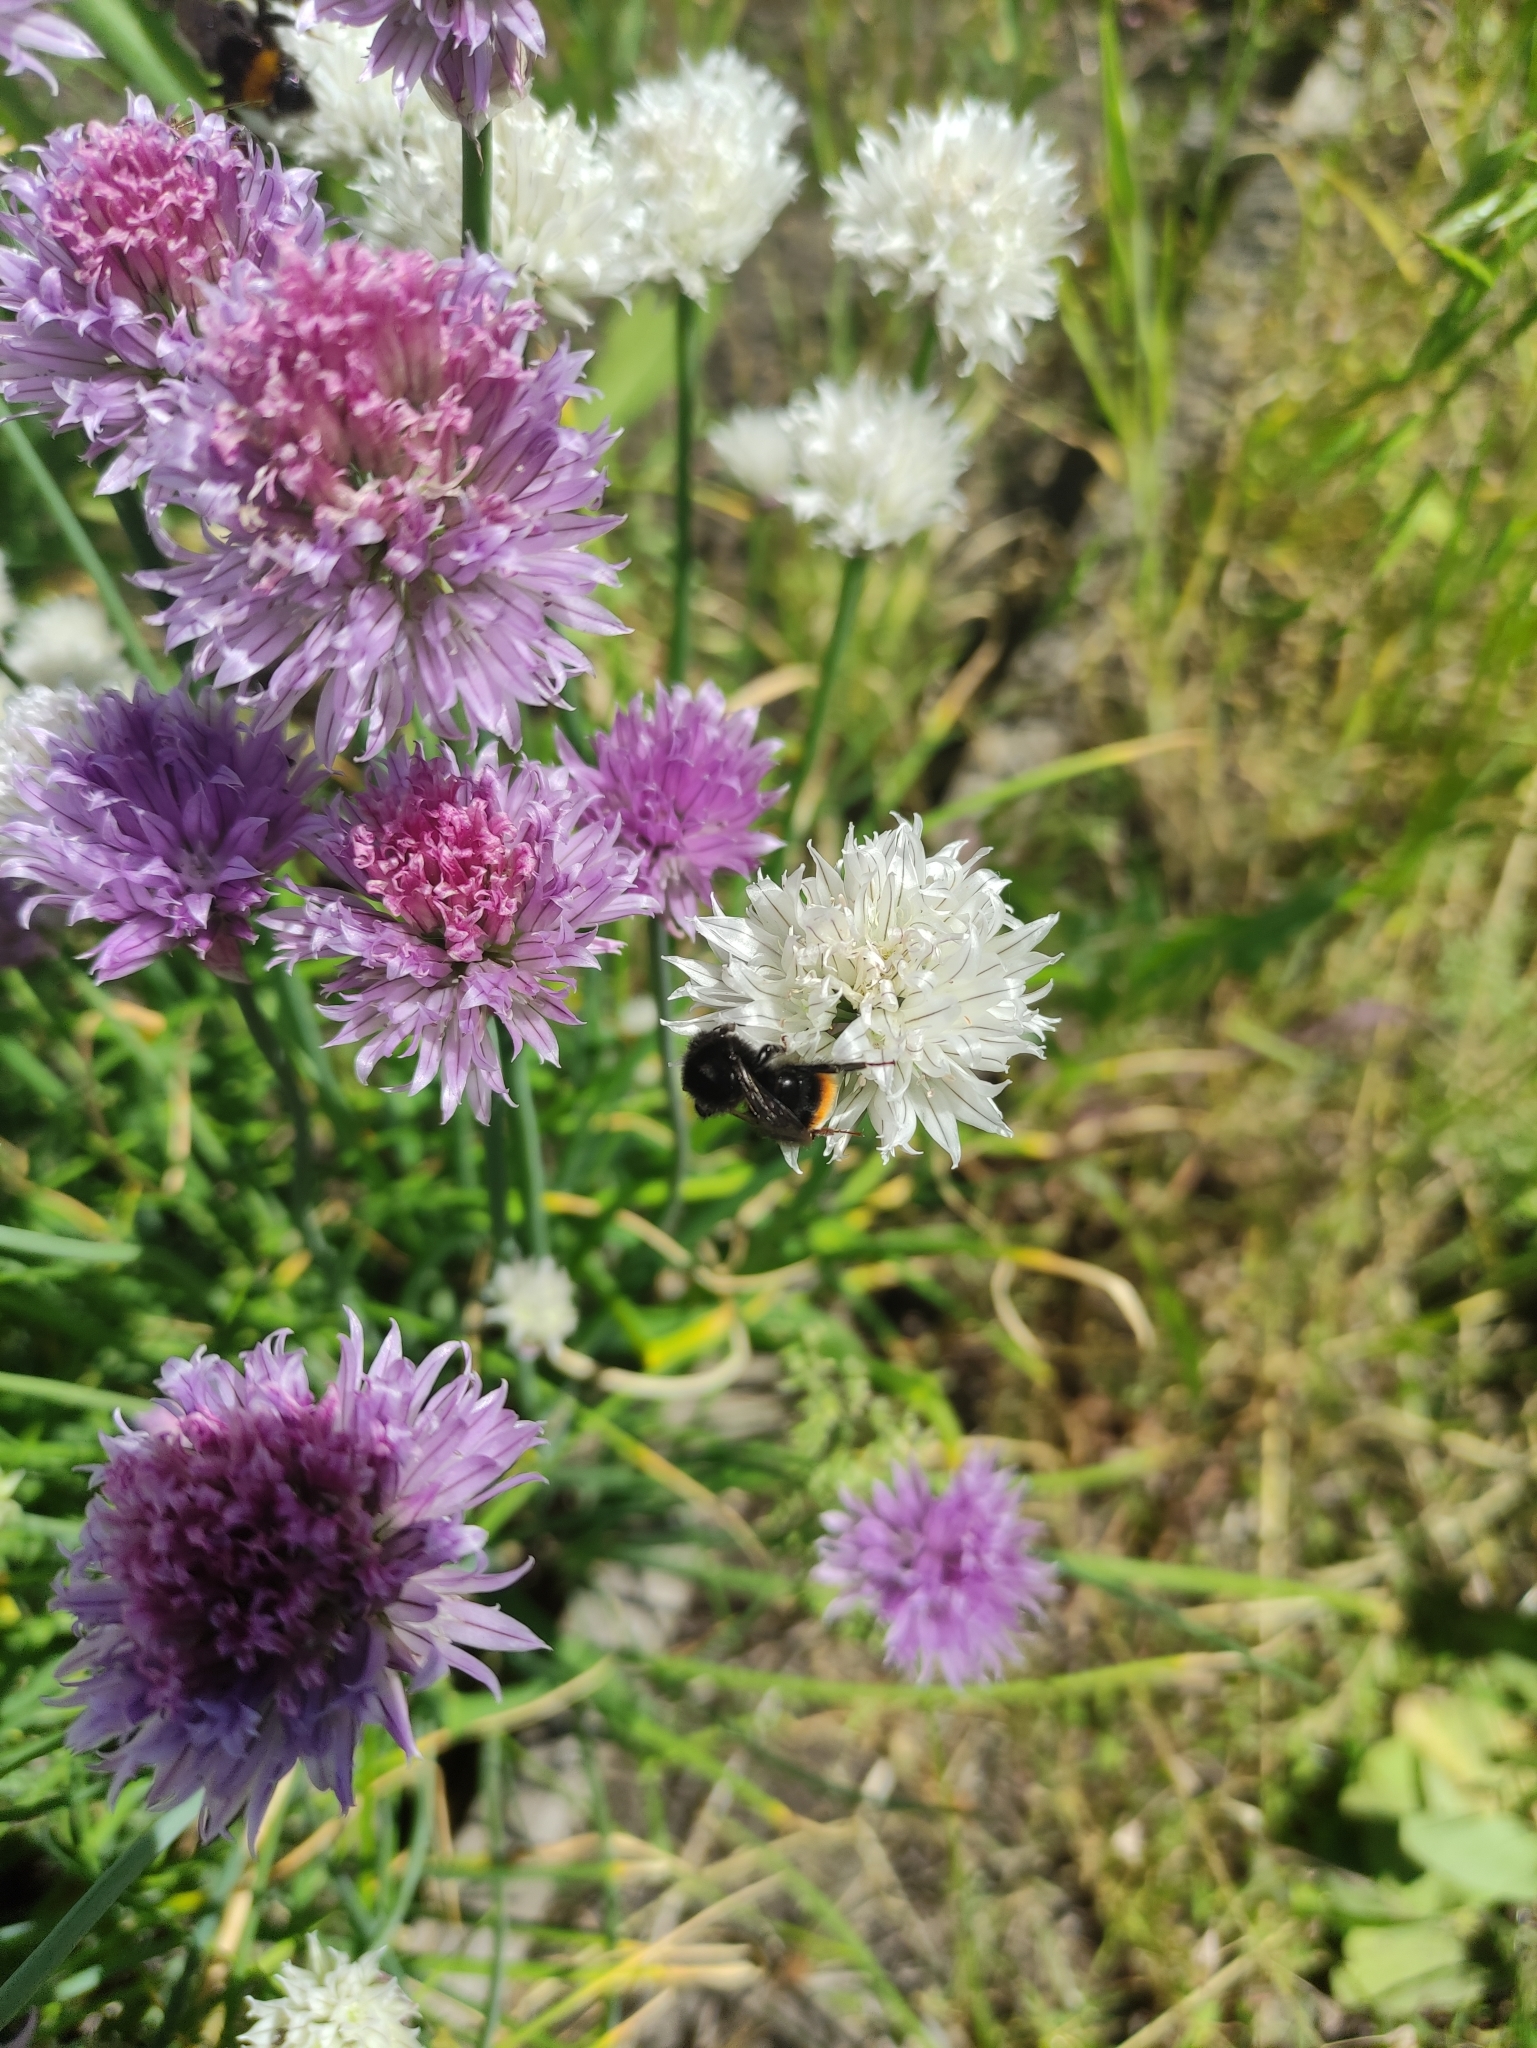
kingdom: Animalia
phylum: Arthropoda
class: Insecta
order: Hymenoptera
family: Apidae
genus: Bombus
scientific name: Bombus lapidarius
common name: Large red-tailed humble-bee
